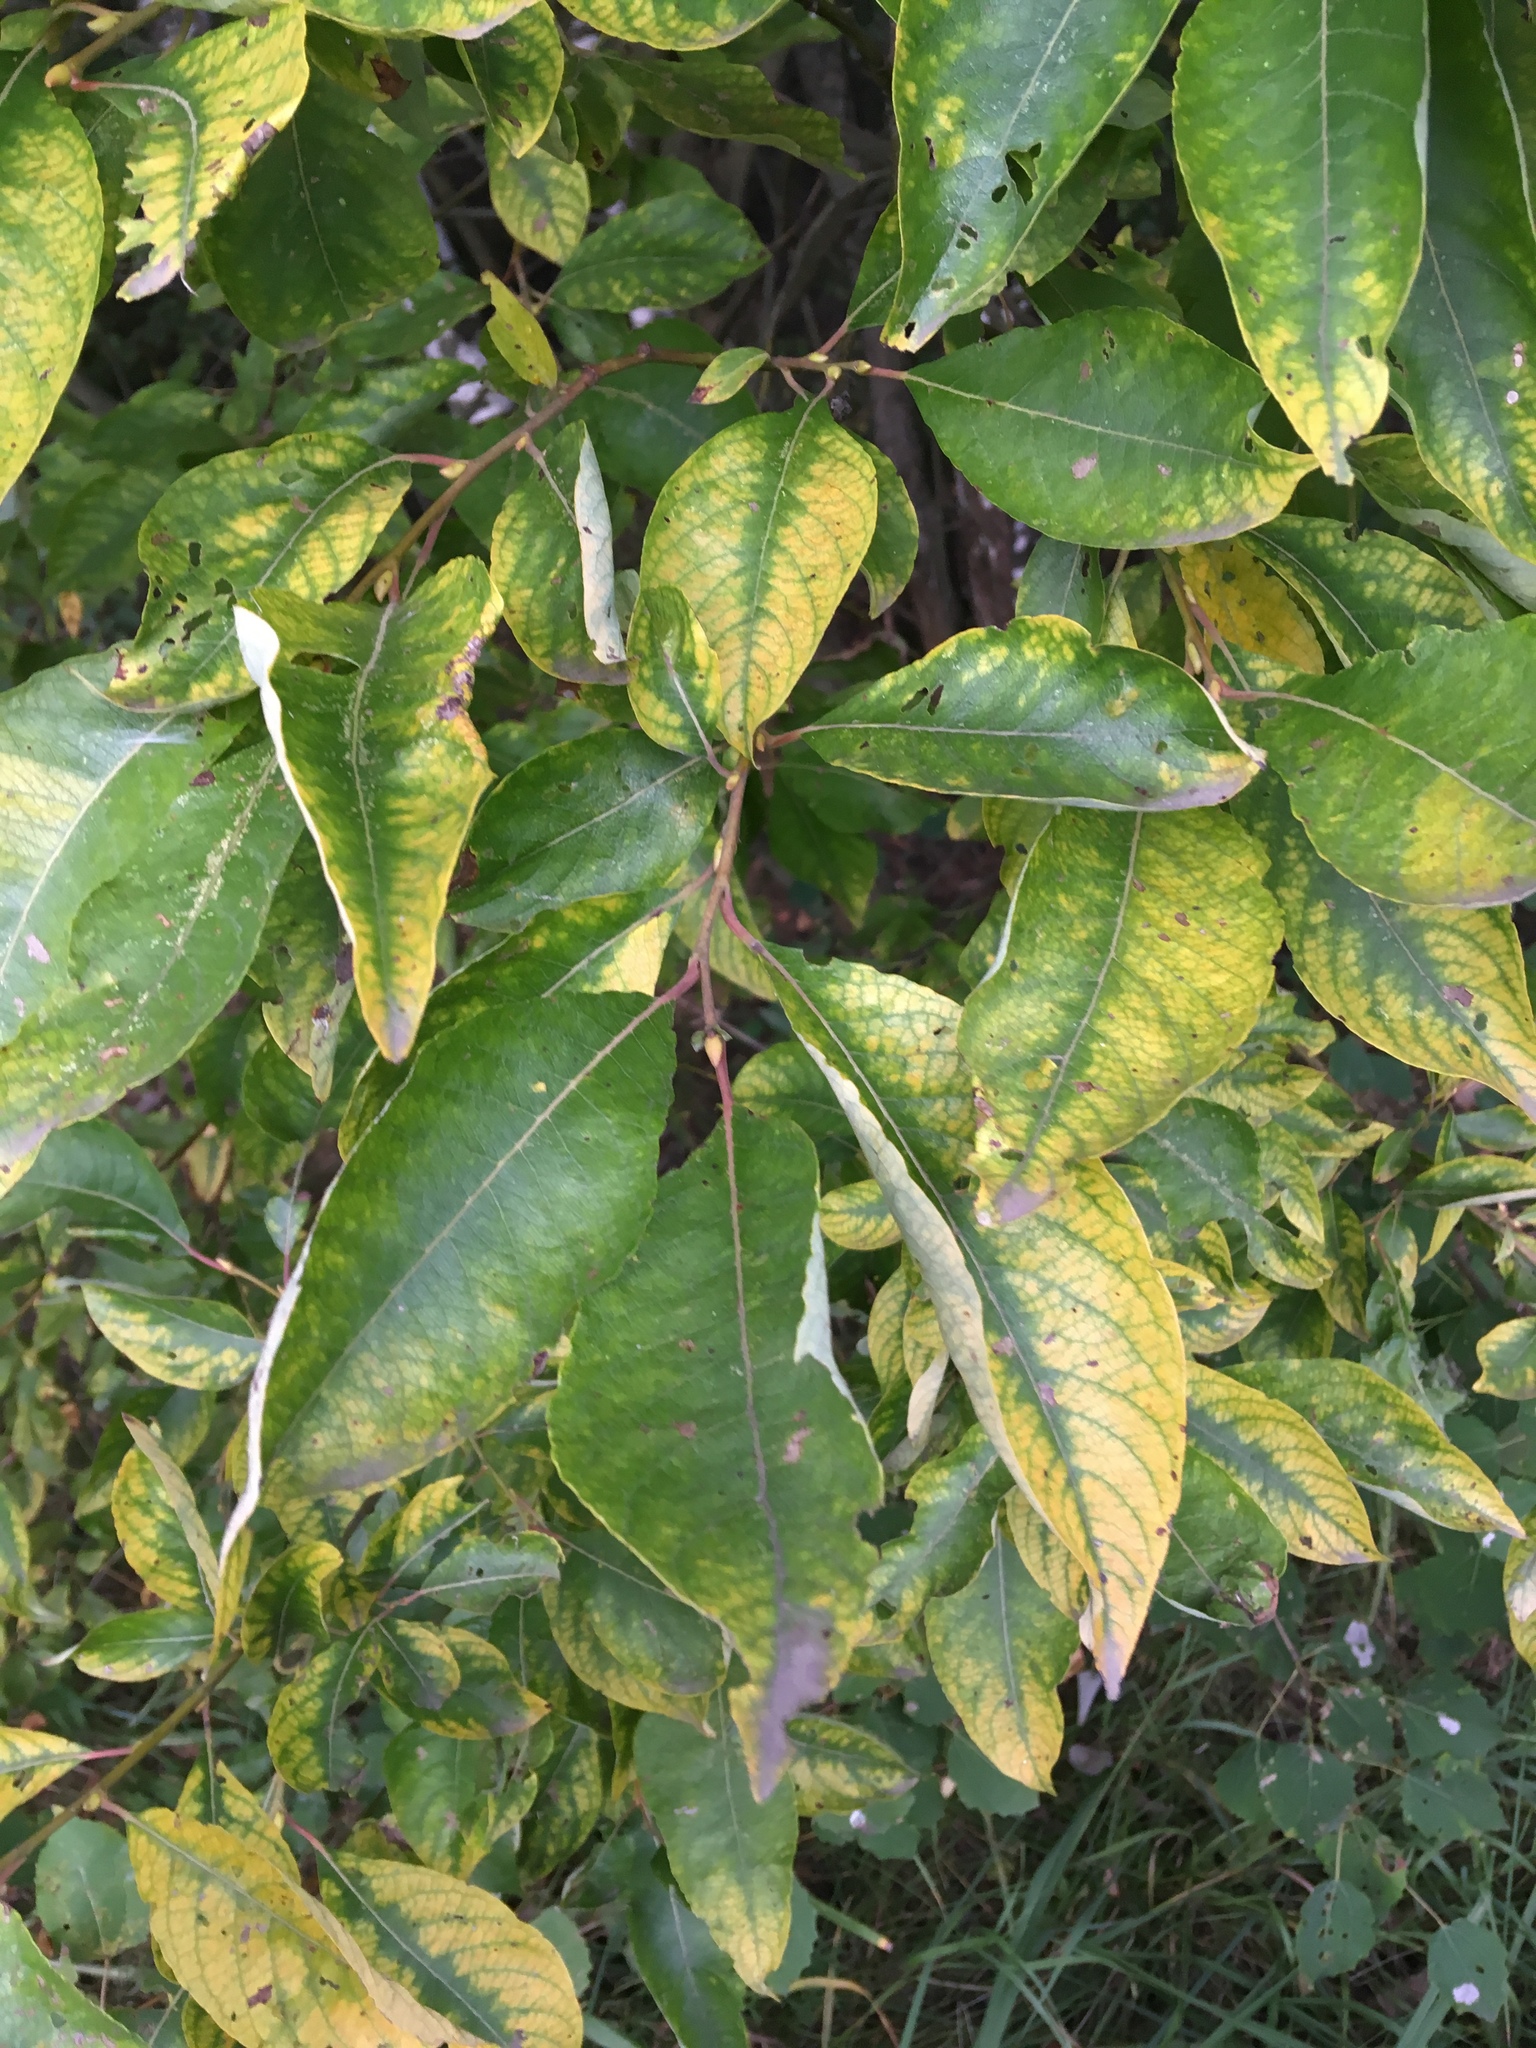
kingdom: Plantae
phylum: Tracheophyta
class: Magnoliopsida
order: Malpighiales
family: Salicaceae
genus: Salix
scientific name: Salix caprea
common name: Goat willow
